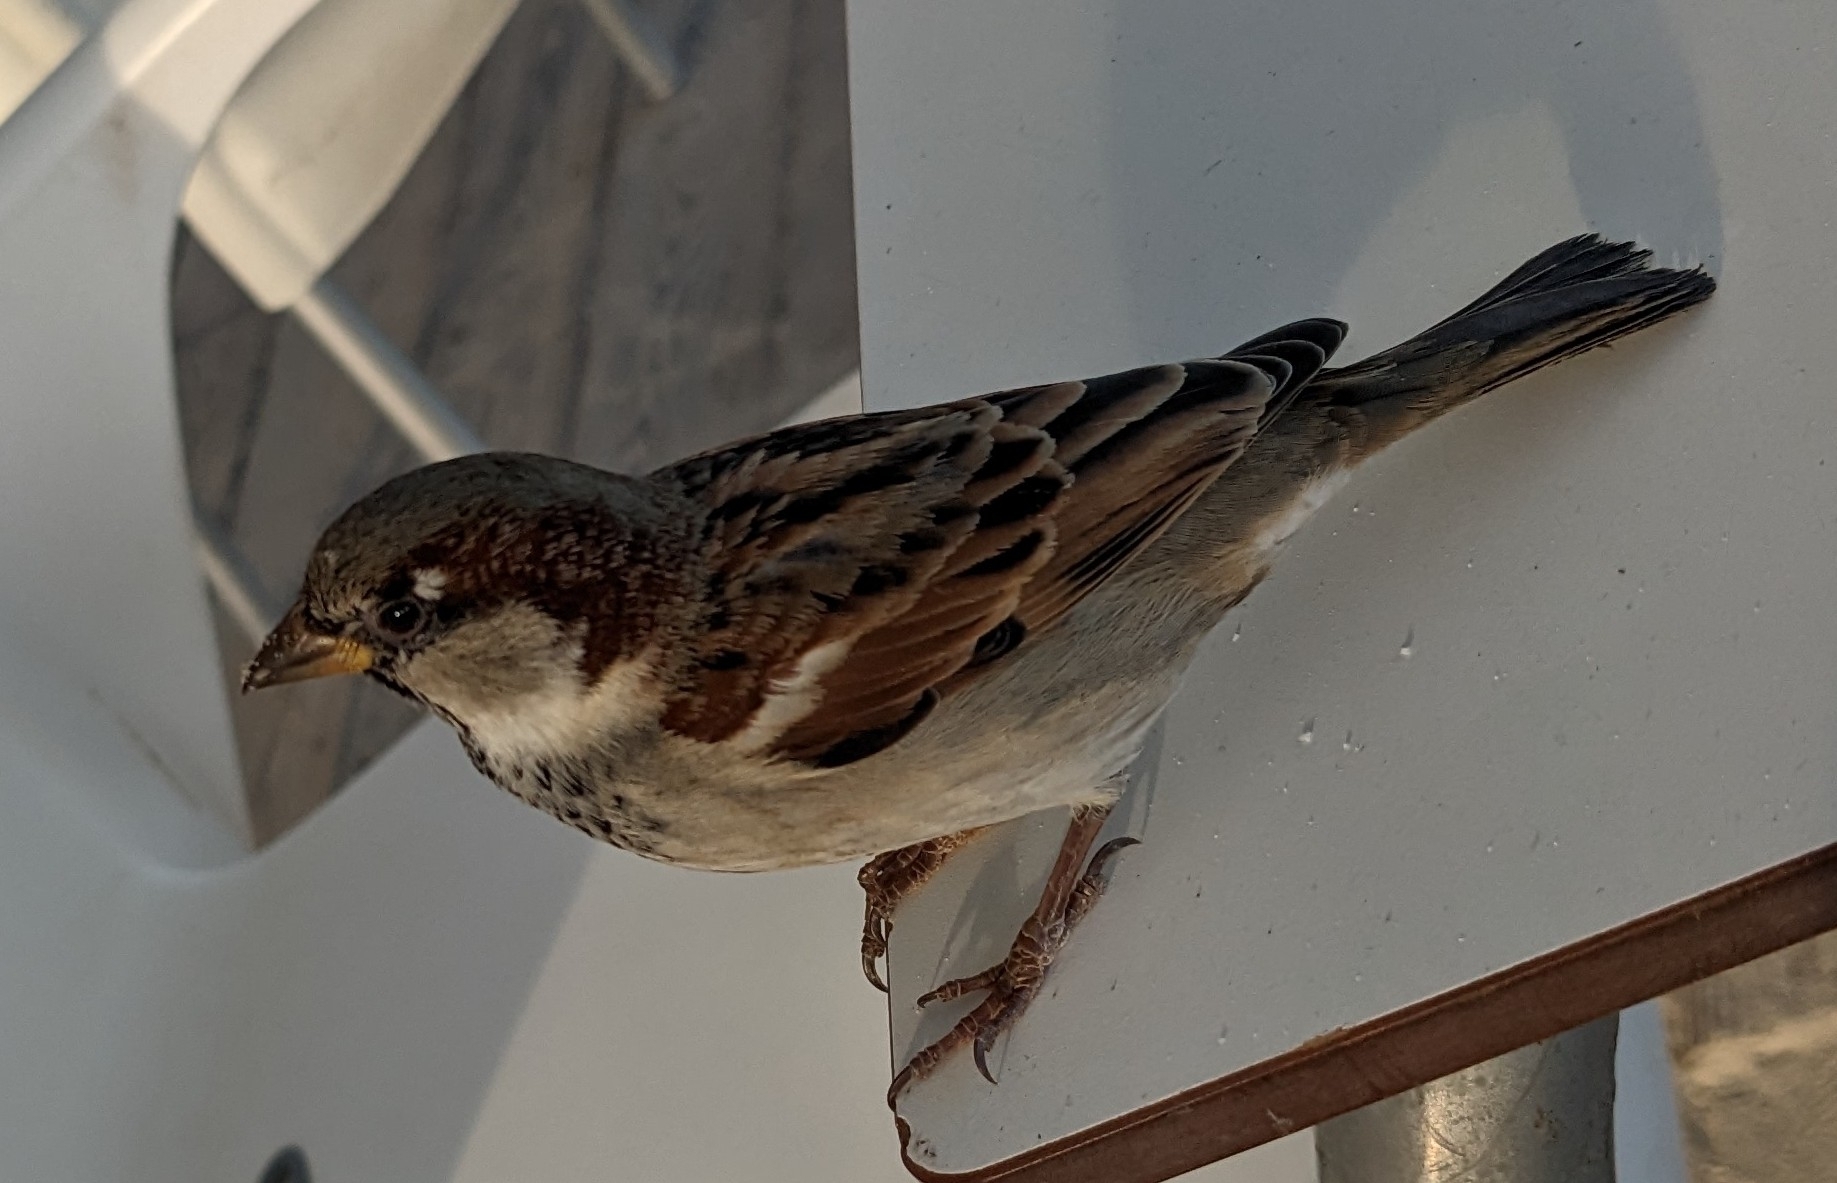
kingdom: Animalia
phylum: Chordata
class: Aves
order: Passeriformes
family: Passeridae
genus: Passer
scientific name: Passer domesticus
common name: House sparrow
